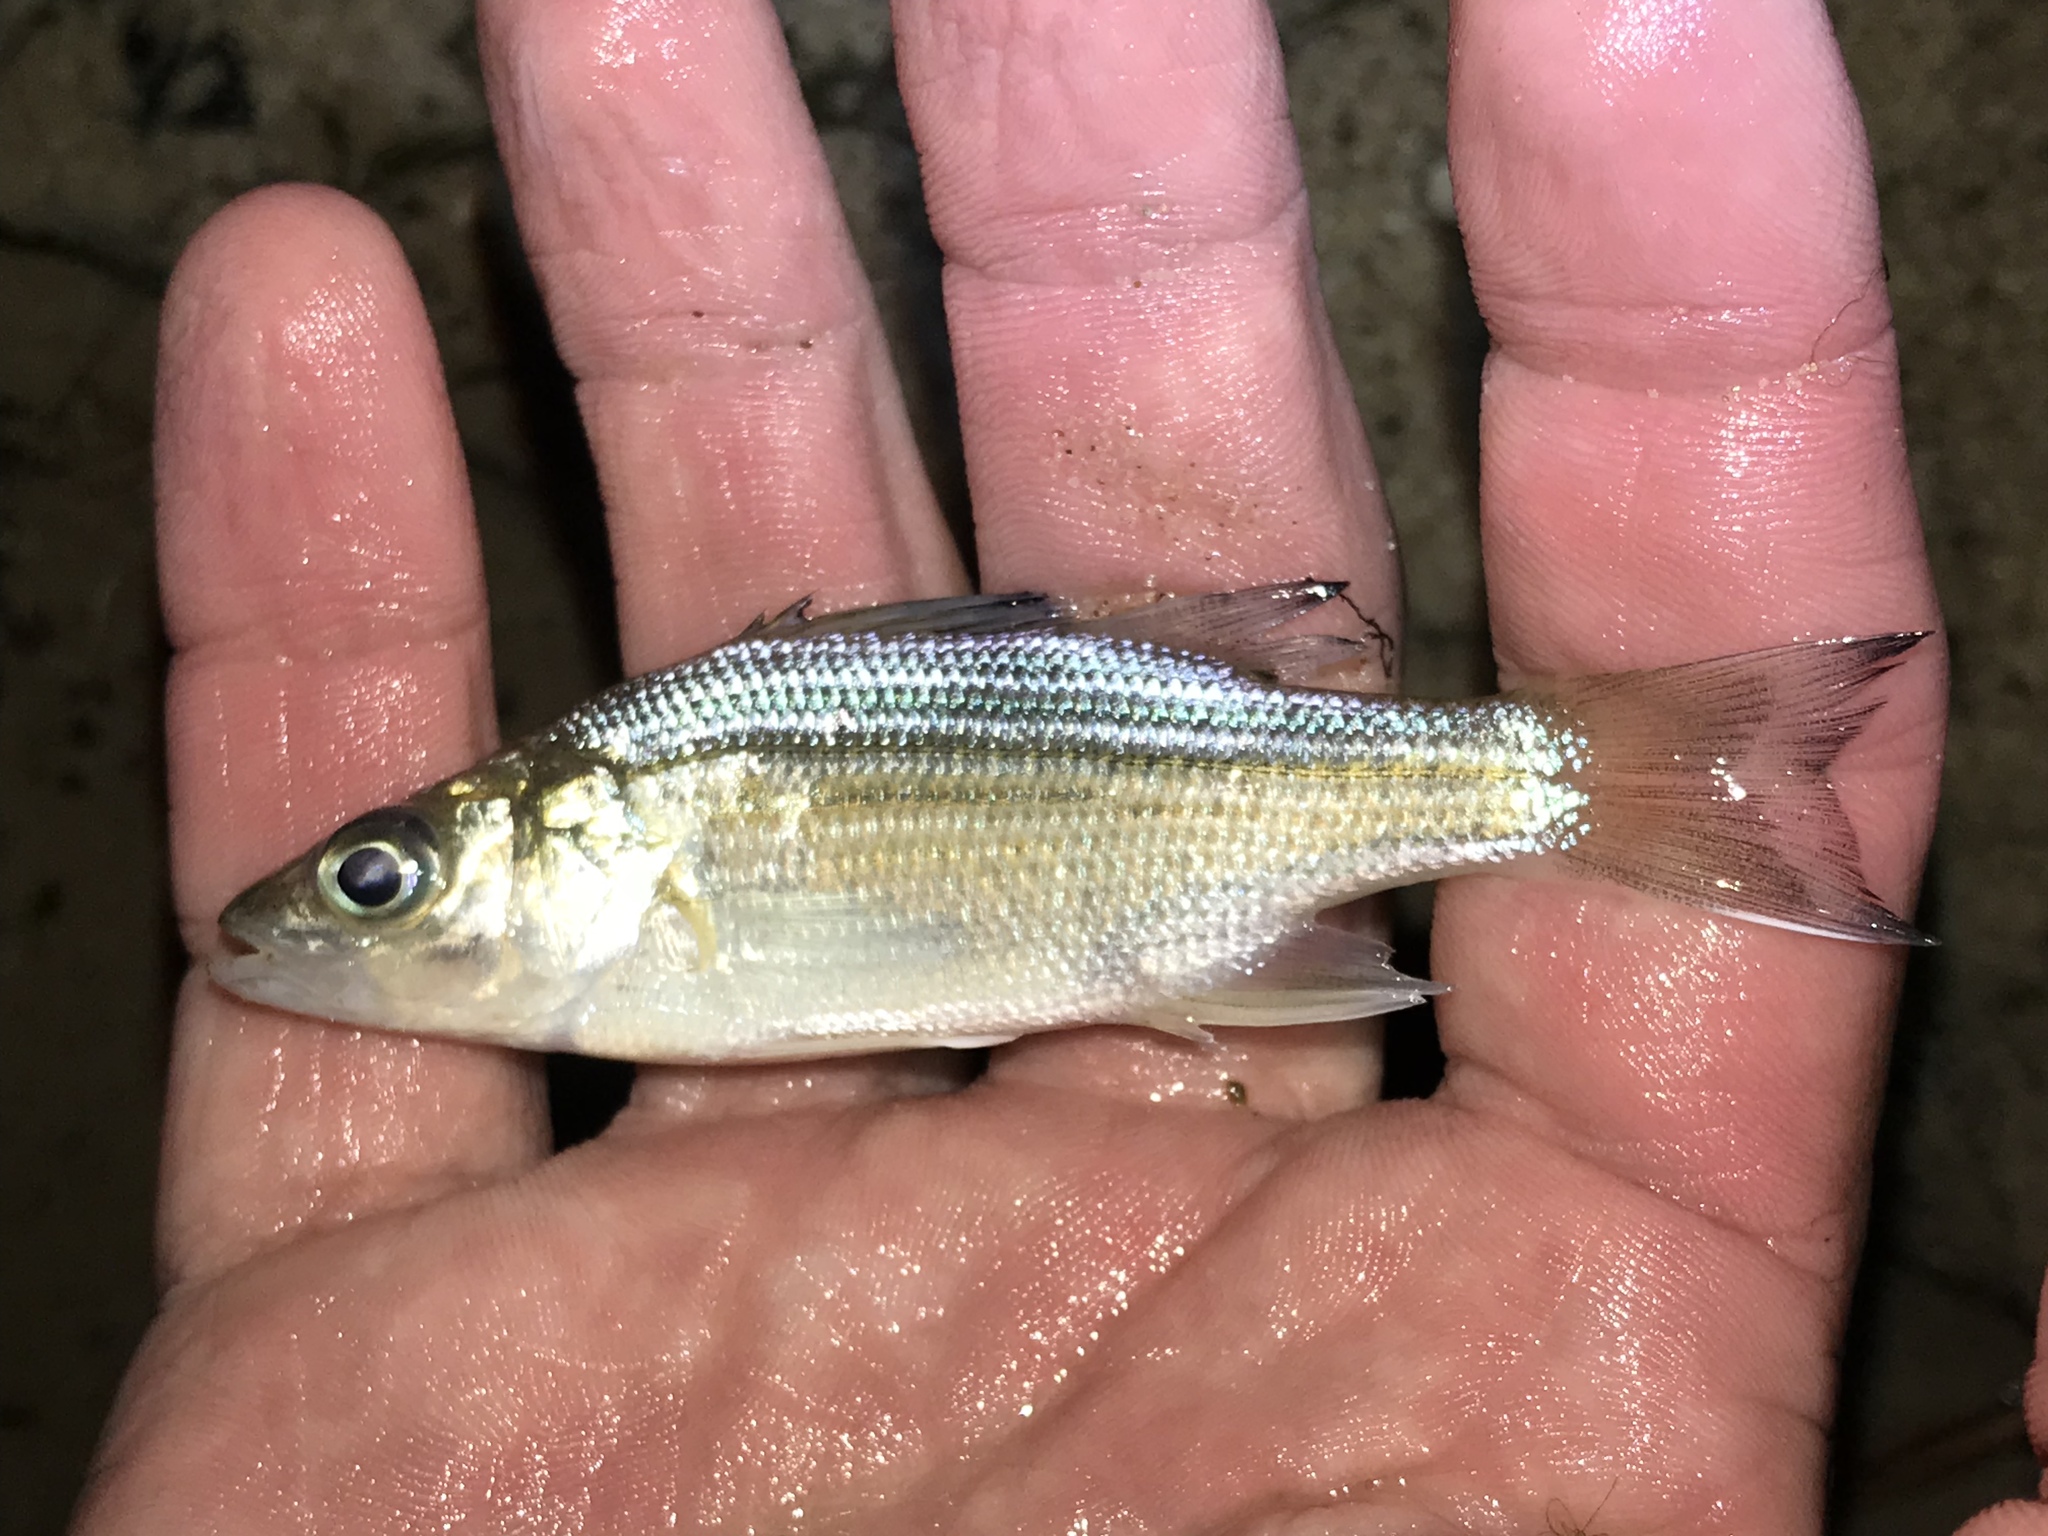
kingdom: Animalia
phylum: Chordata
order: Perciformes
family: Moronidae
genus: Morone
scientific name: Morone mississippiensis
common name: Yellow bass
